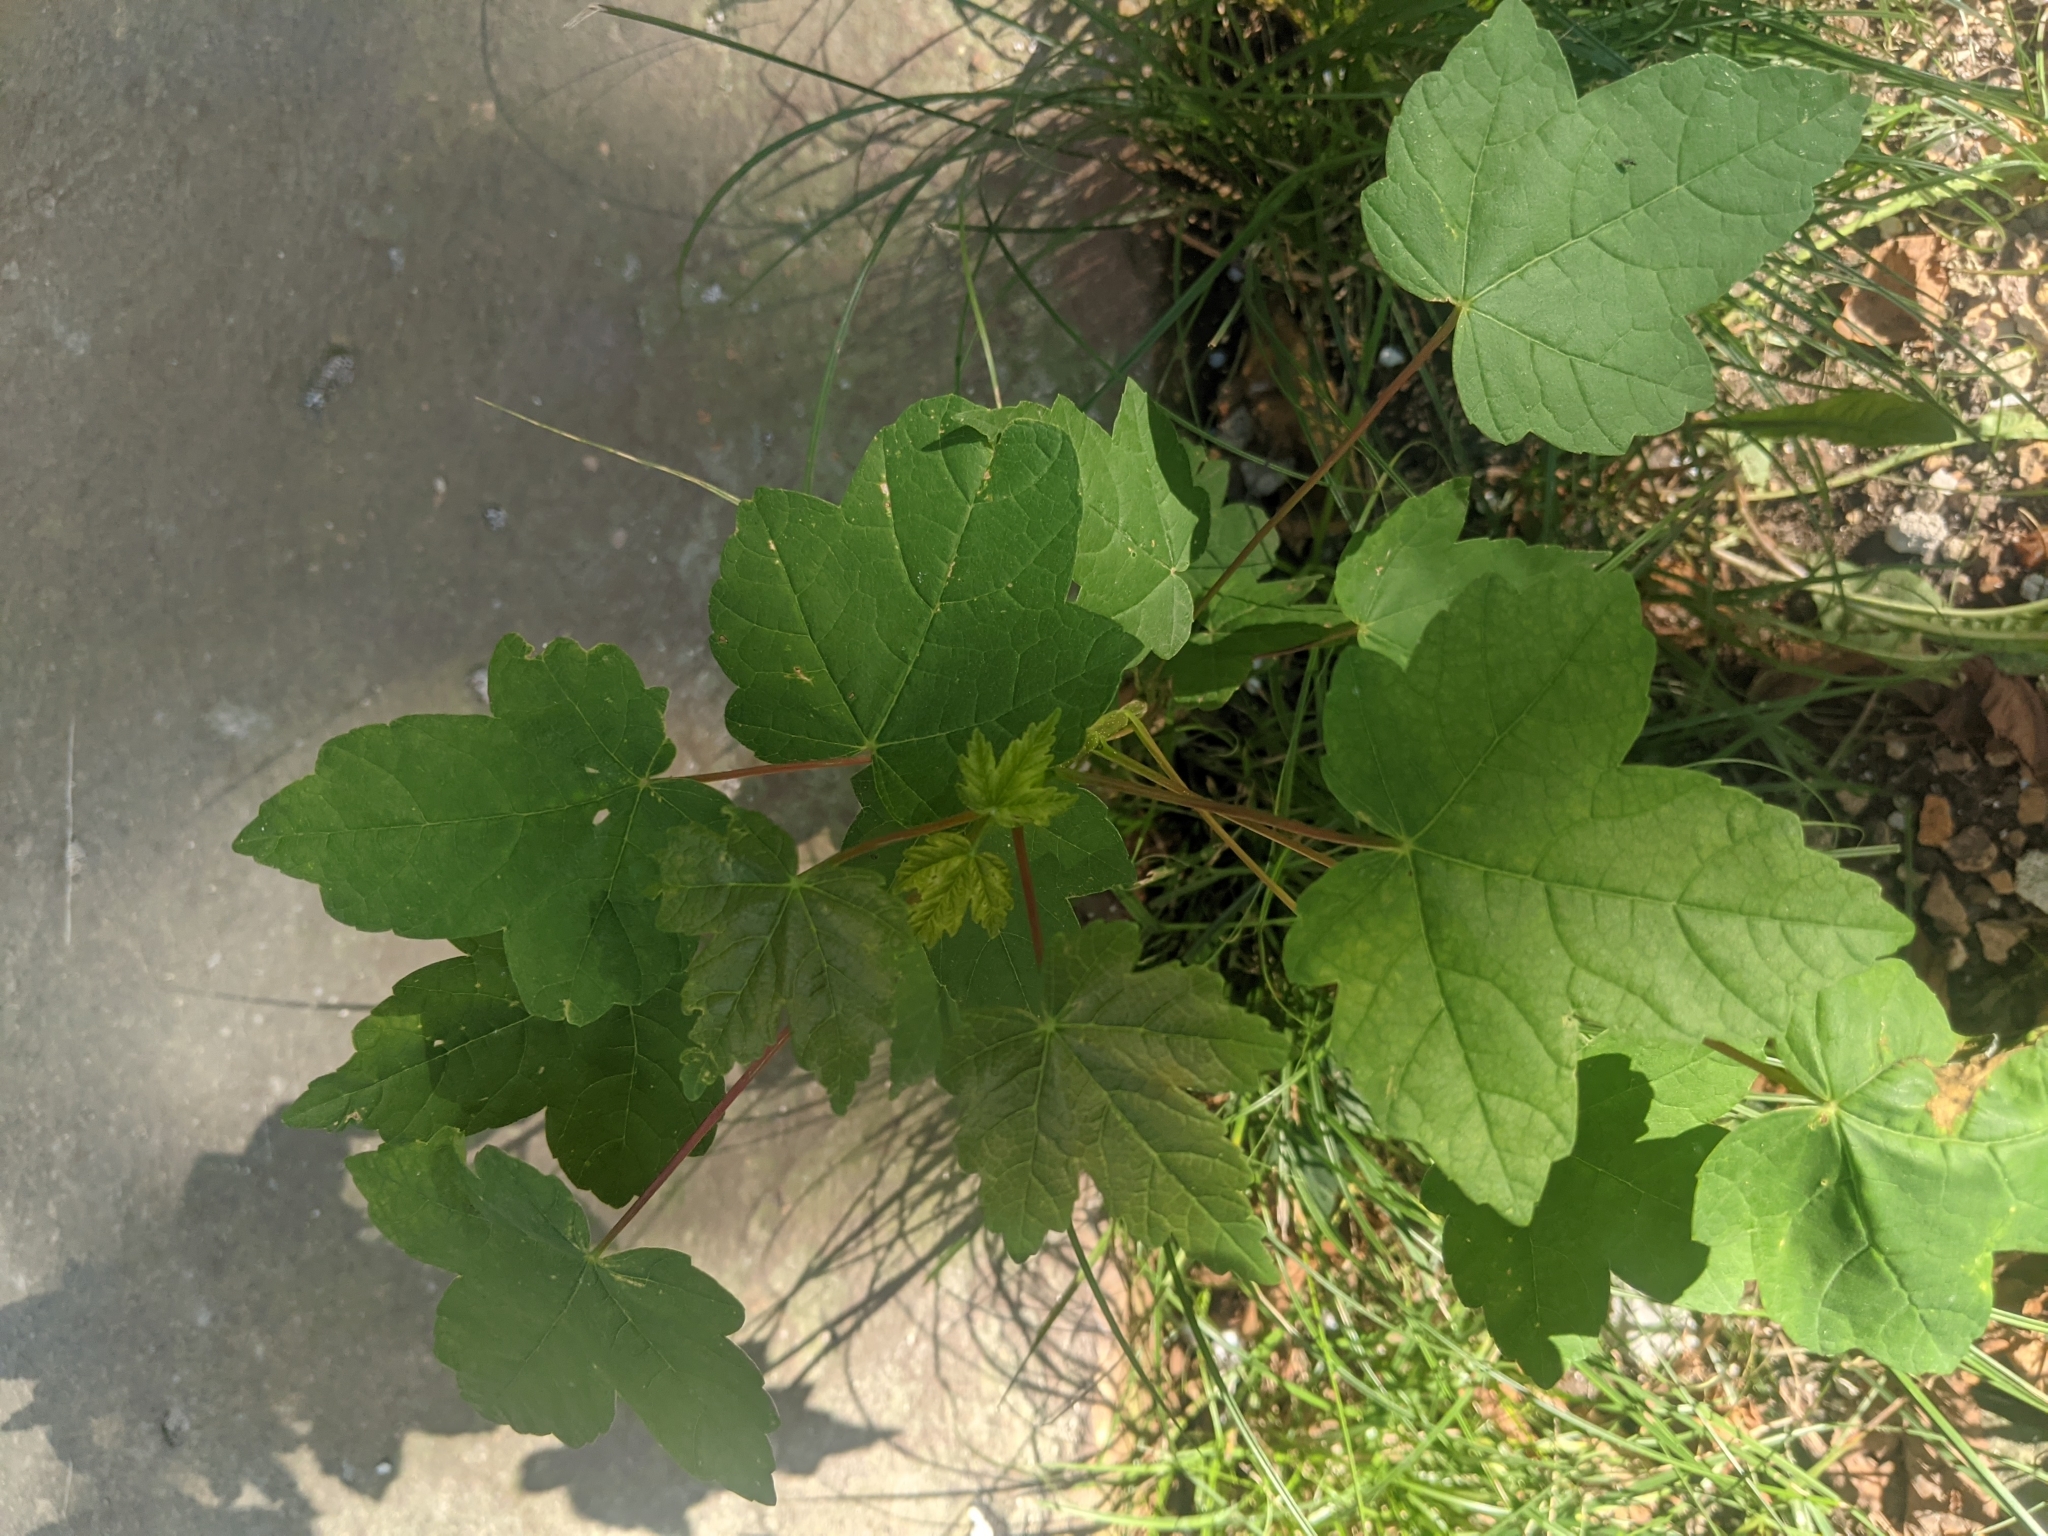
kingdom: Plantae
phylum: Tracheophyta
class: Magnoliopsida
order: Sapindales
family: Sapindaceae
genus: Acer
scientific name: Acer pseudoplatanus
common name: Sycamore
